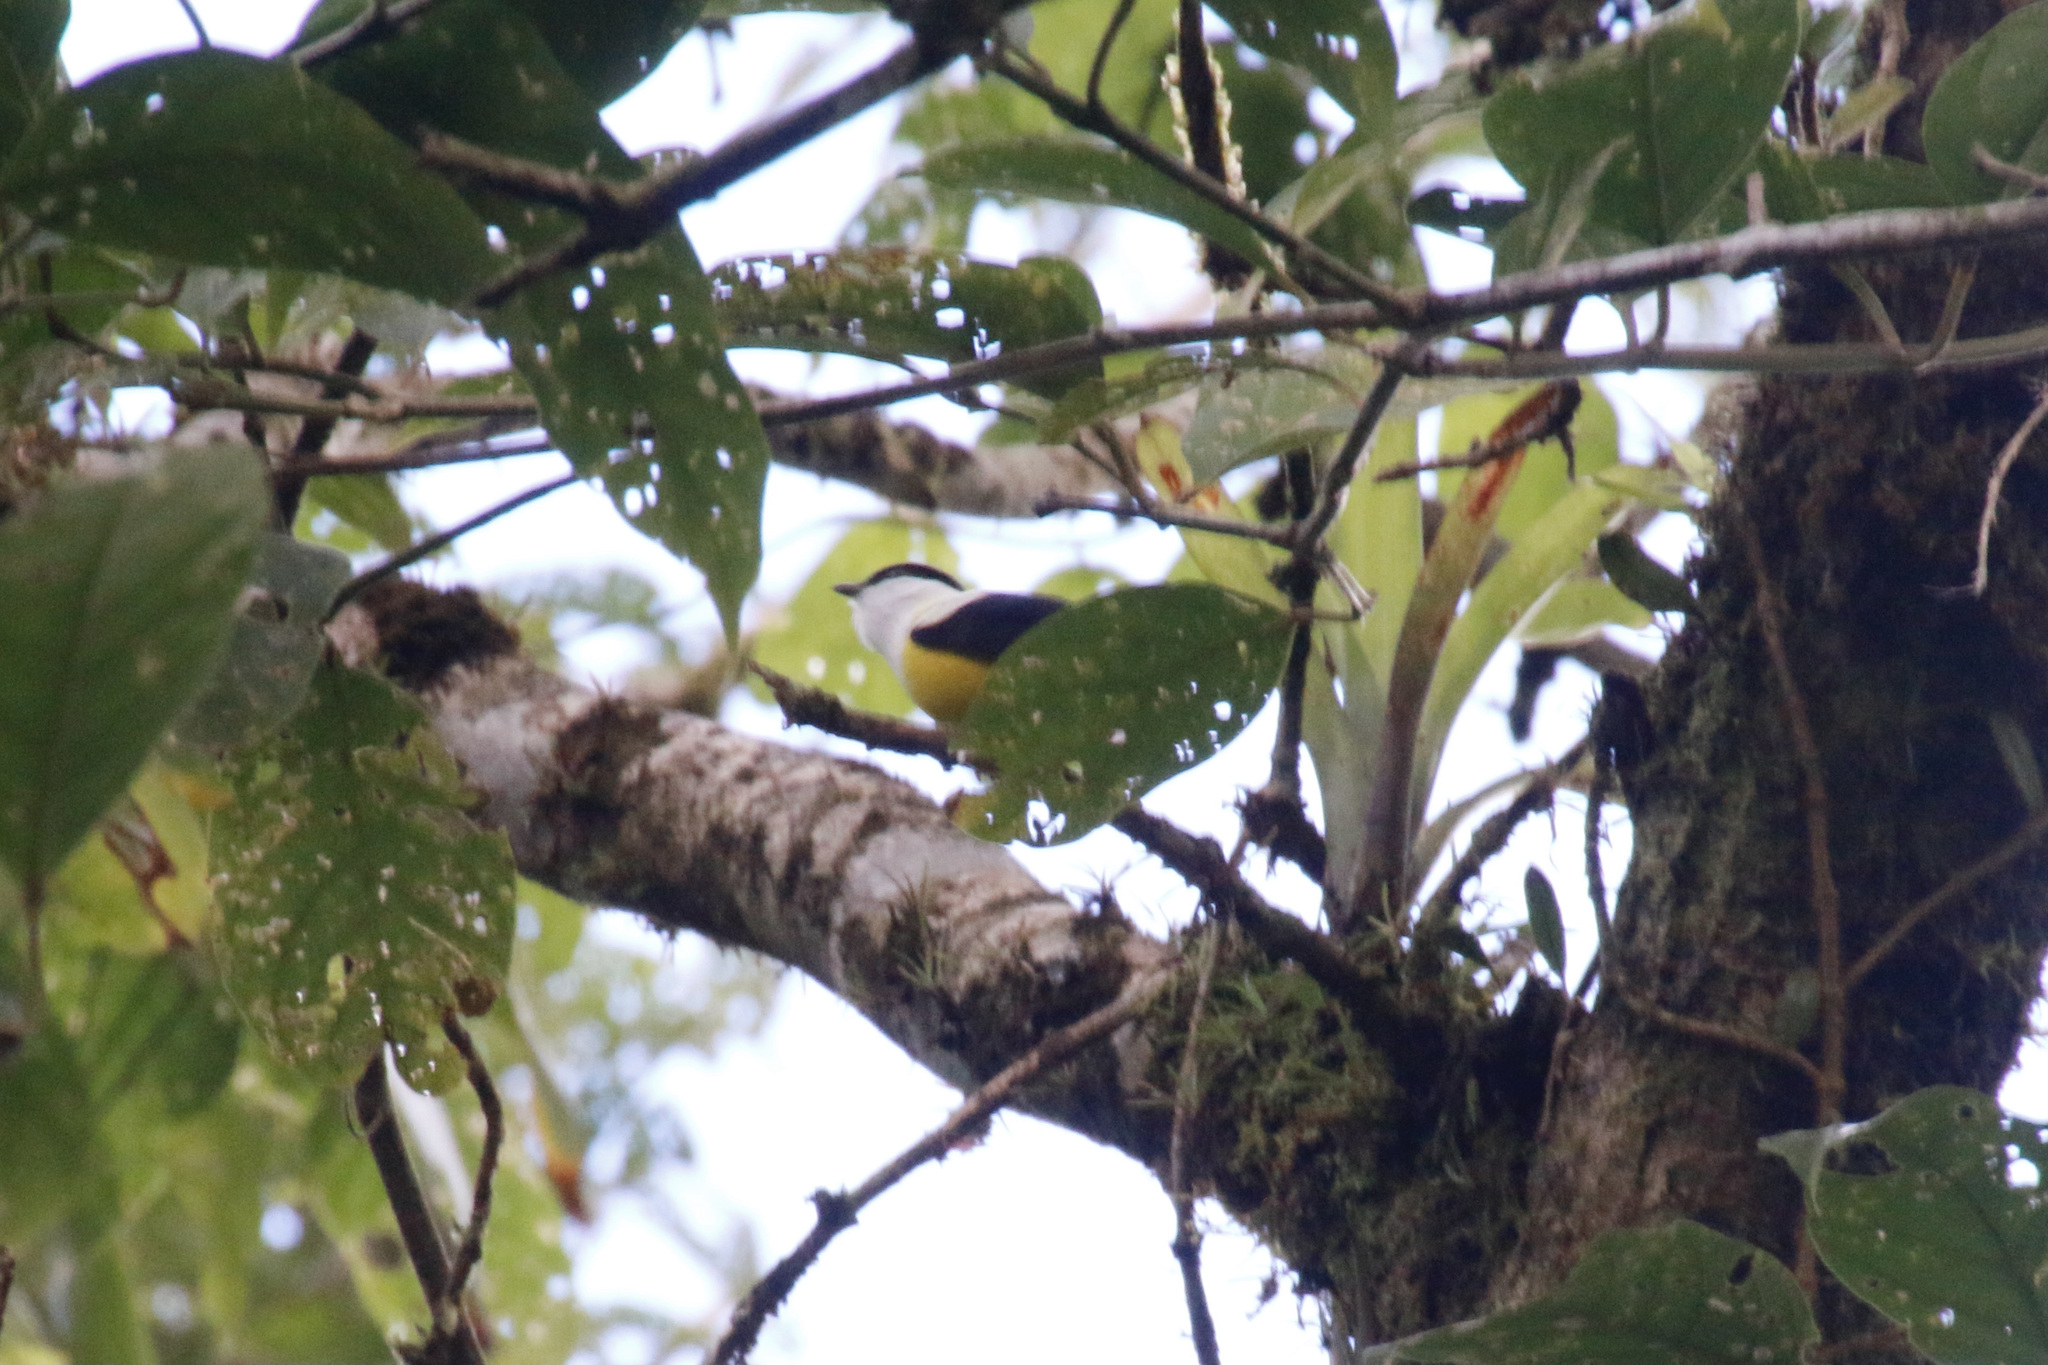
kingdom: Animalia
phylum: Chordata
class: Aves
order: Passeriformes
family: Pipridae
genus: Manacus
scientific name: Manacus candei
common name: White-collared manakin
